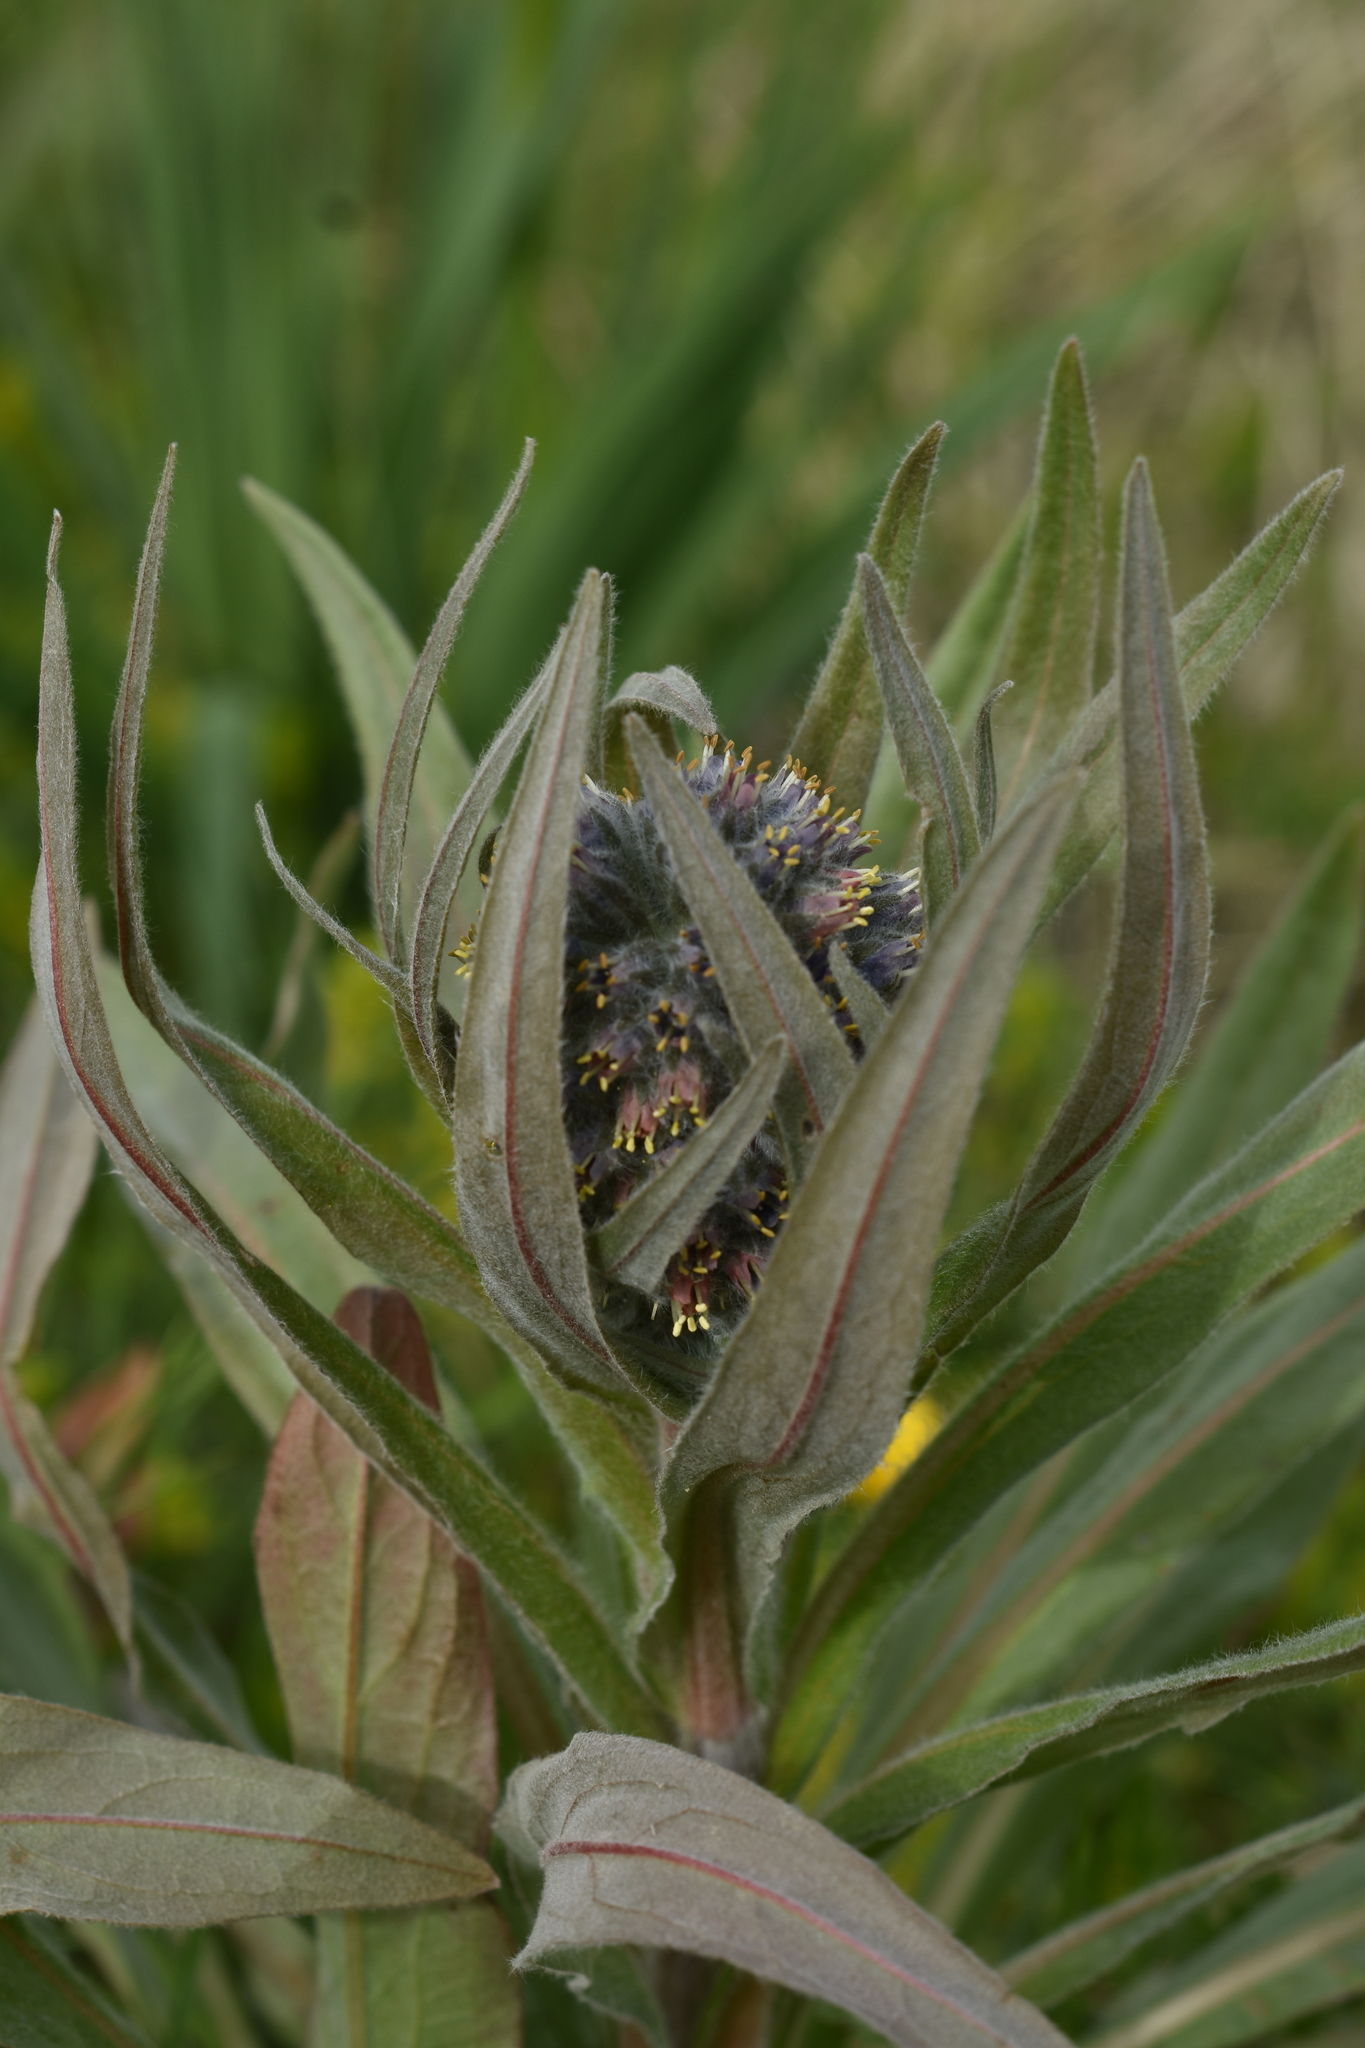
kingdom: Plantae
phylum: Tracheophyta
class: Magnoliopsida
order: Boraginales
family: Boraginaceae
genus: Solenanthus
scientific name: Solenanthus apenninus
